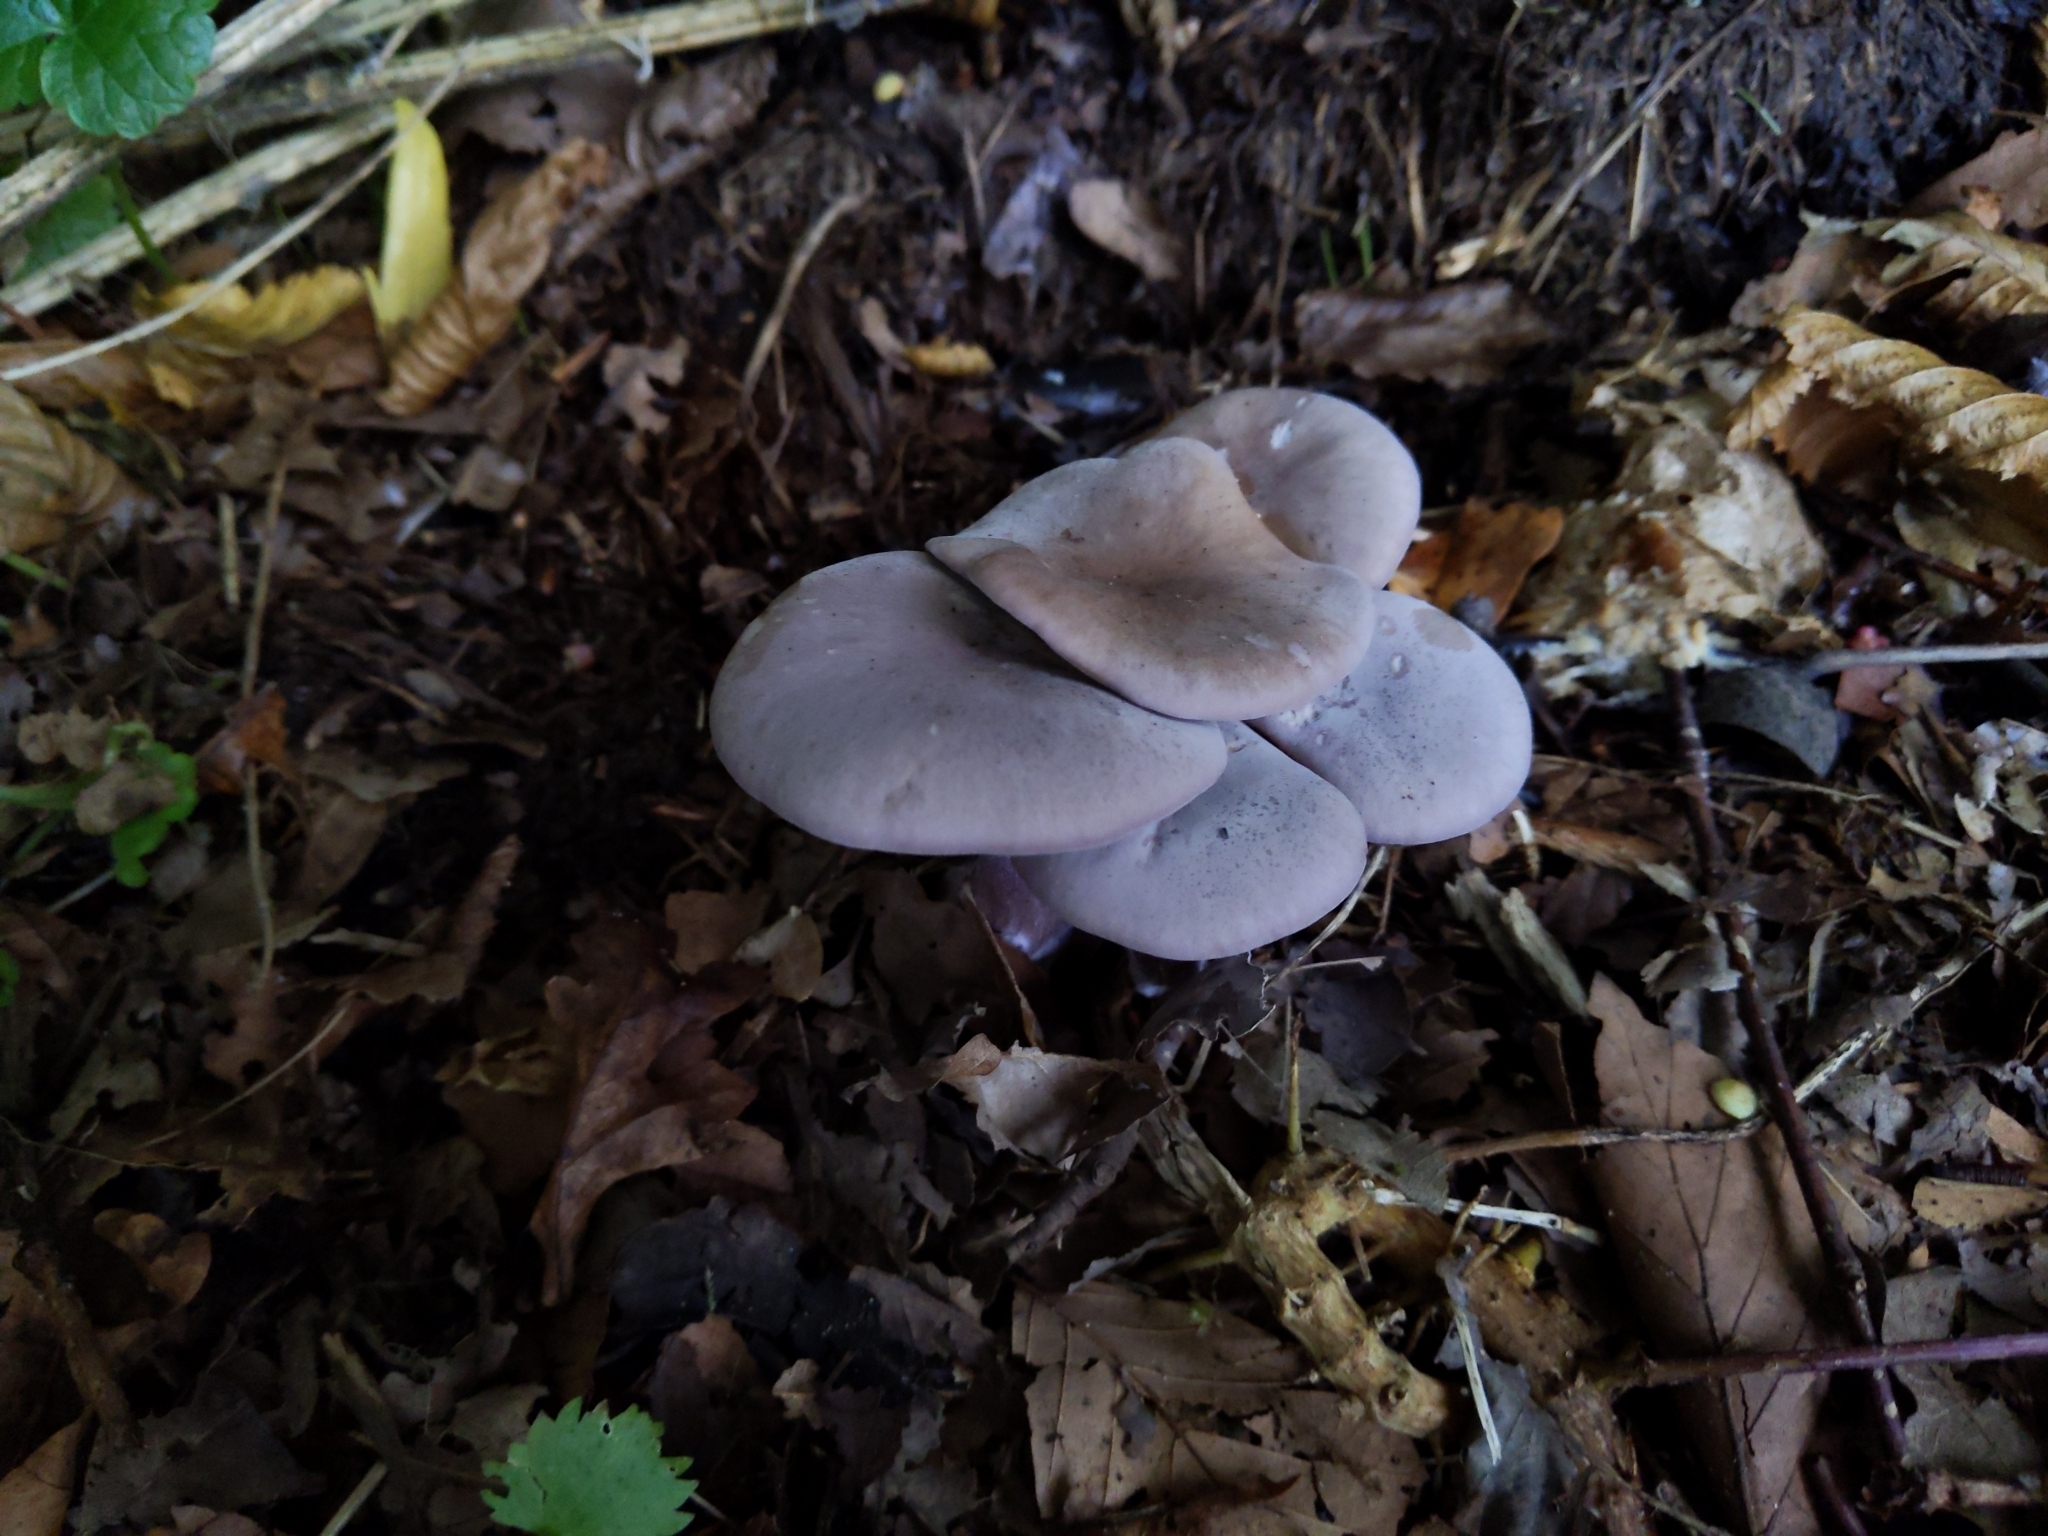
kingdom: Fungi
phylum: Basidiomycota
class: Agaricomycetes
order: Agaricales
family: Tricholomataceae
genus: Collybia
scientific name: Collybia
